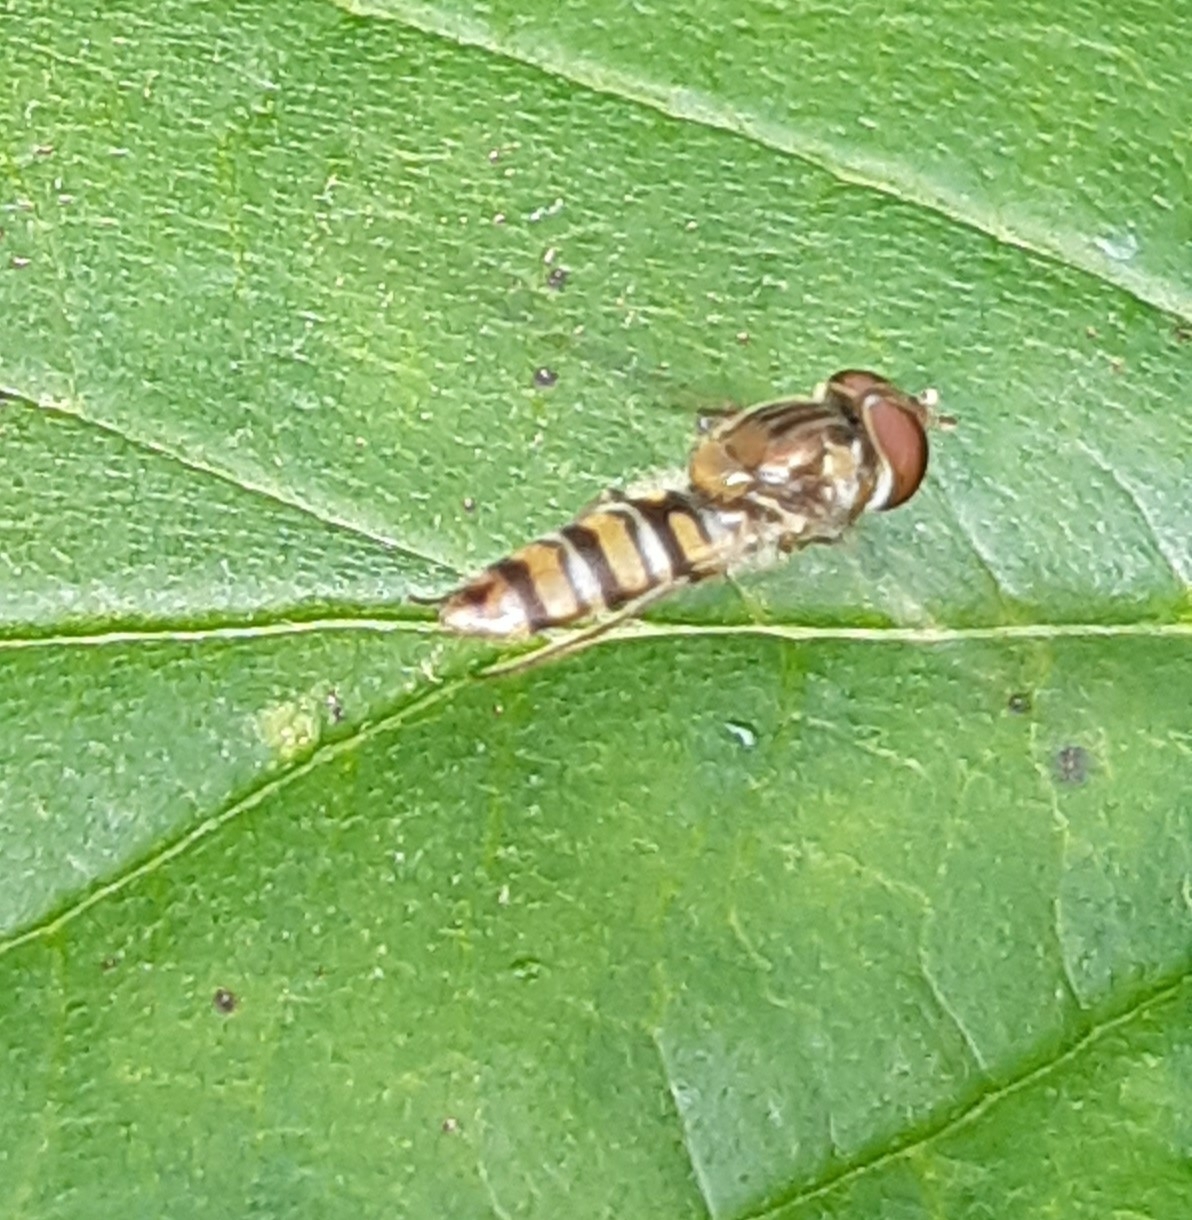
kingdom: Animalia
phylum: Arthropoda
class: Insecta
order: Diptera
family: Syrphidae
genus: Episyrphus
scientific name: Episyrphus balteatus
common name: Marmalade hoverfly
